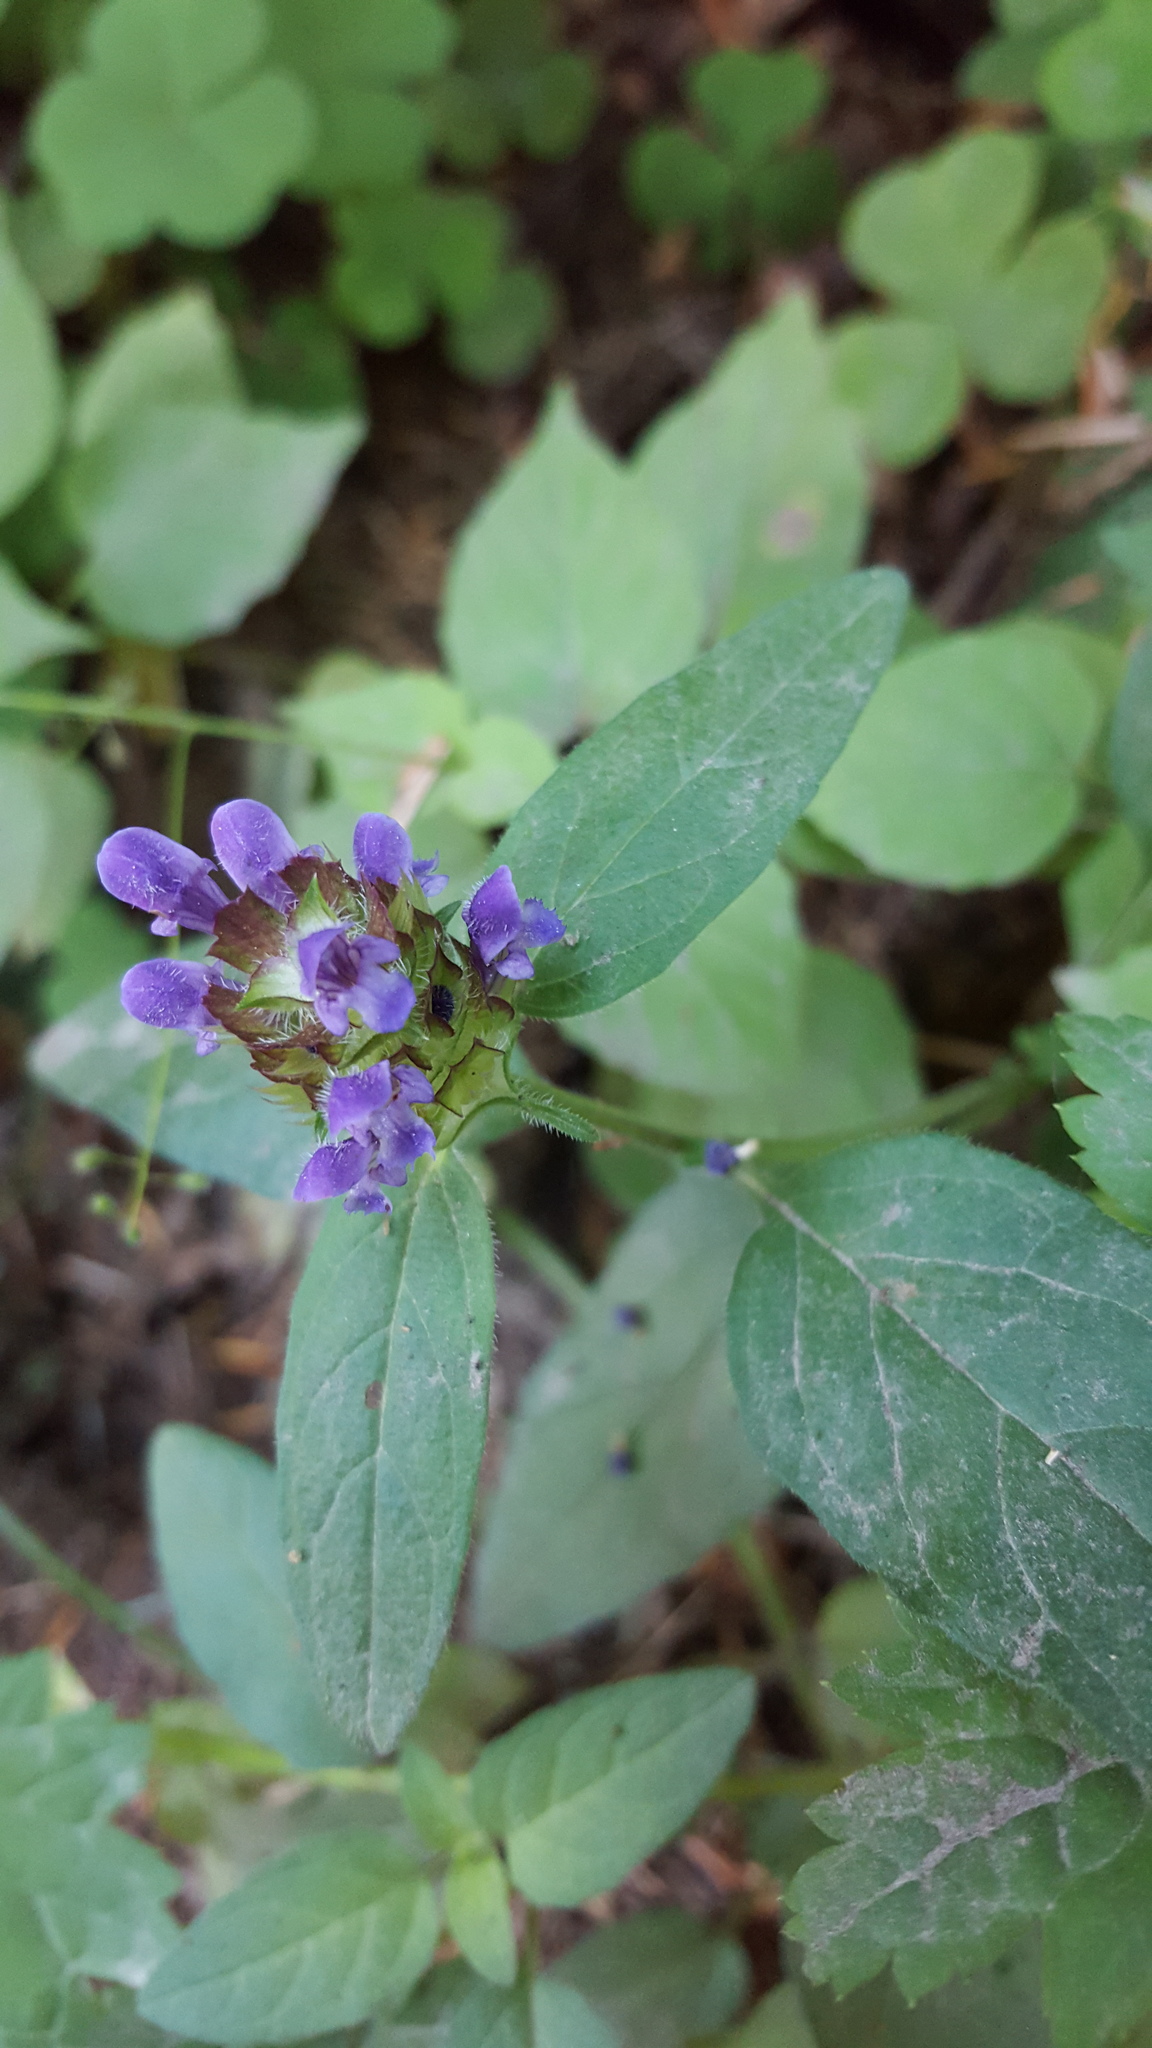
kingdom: Plantae
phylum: Tracheophyta
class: Magnoliopsida
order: Lamiales
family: Lamiaceae
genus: Prunella
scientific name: Prunella vulgaris
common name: Heal-all
